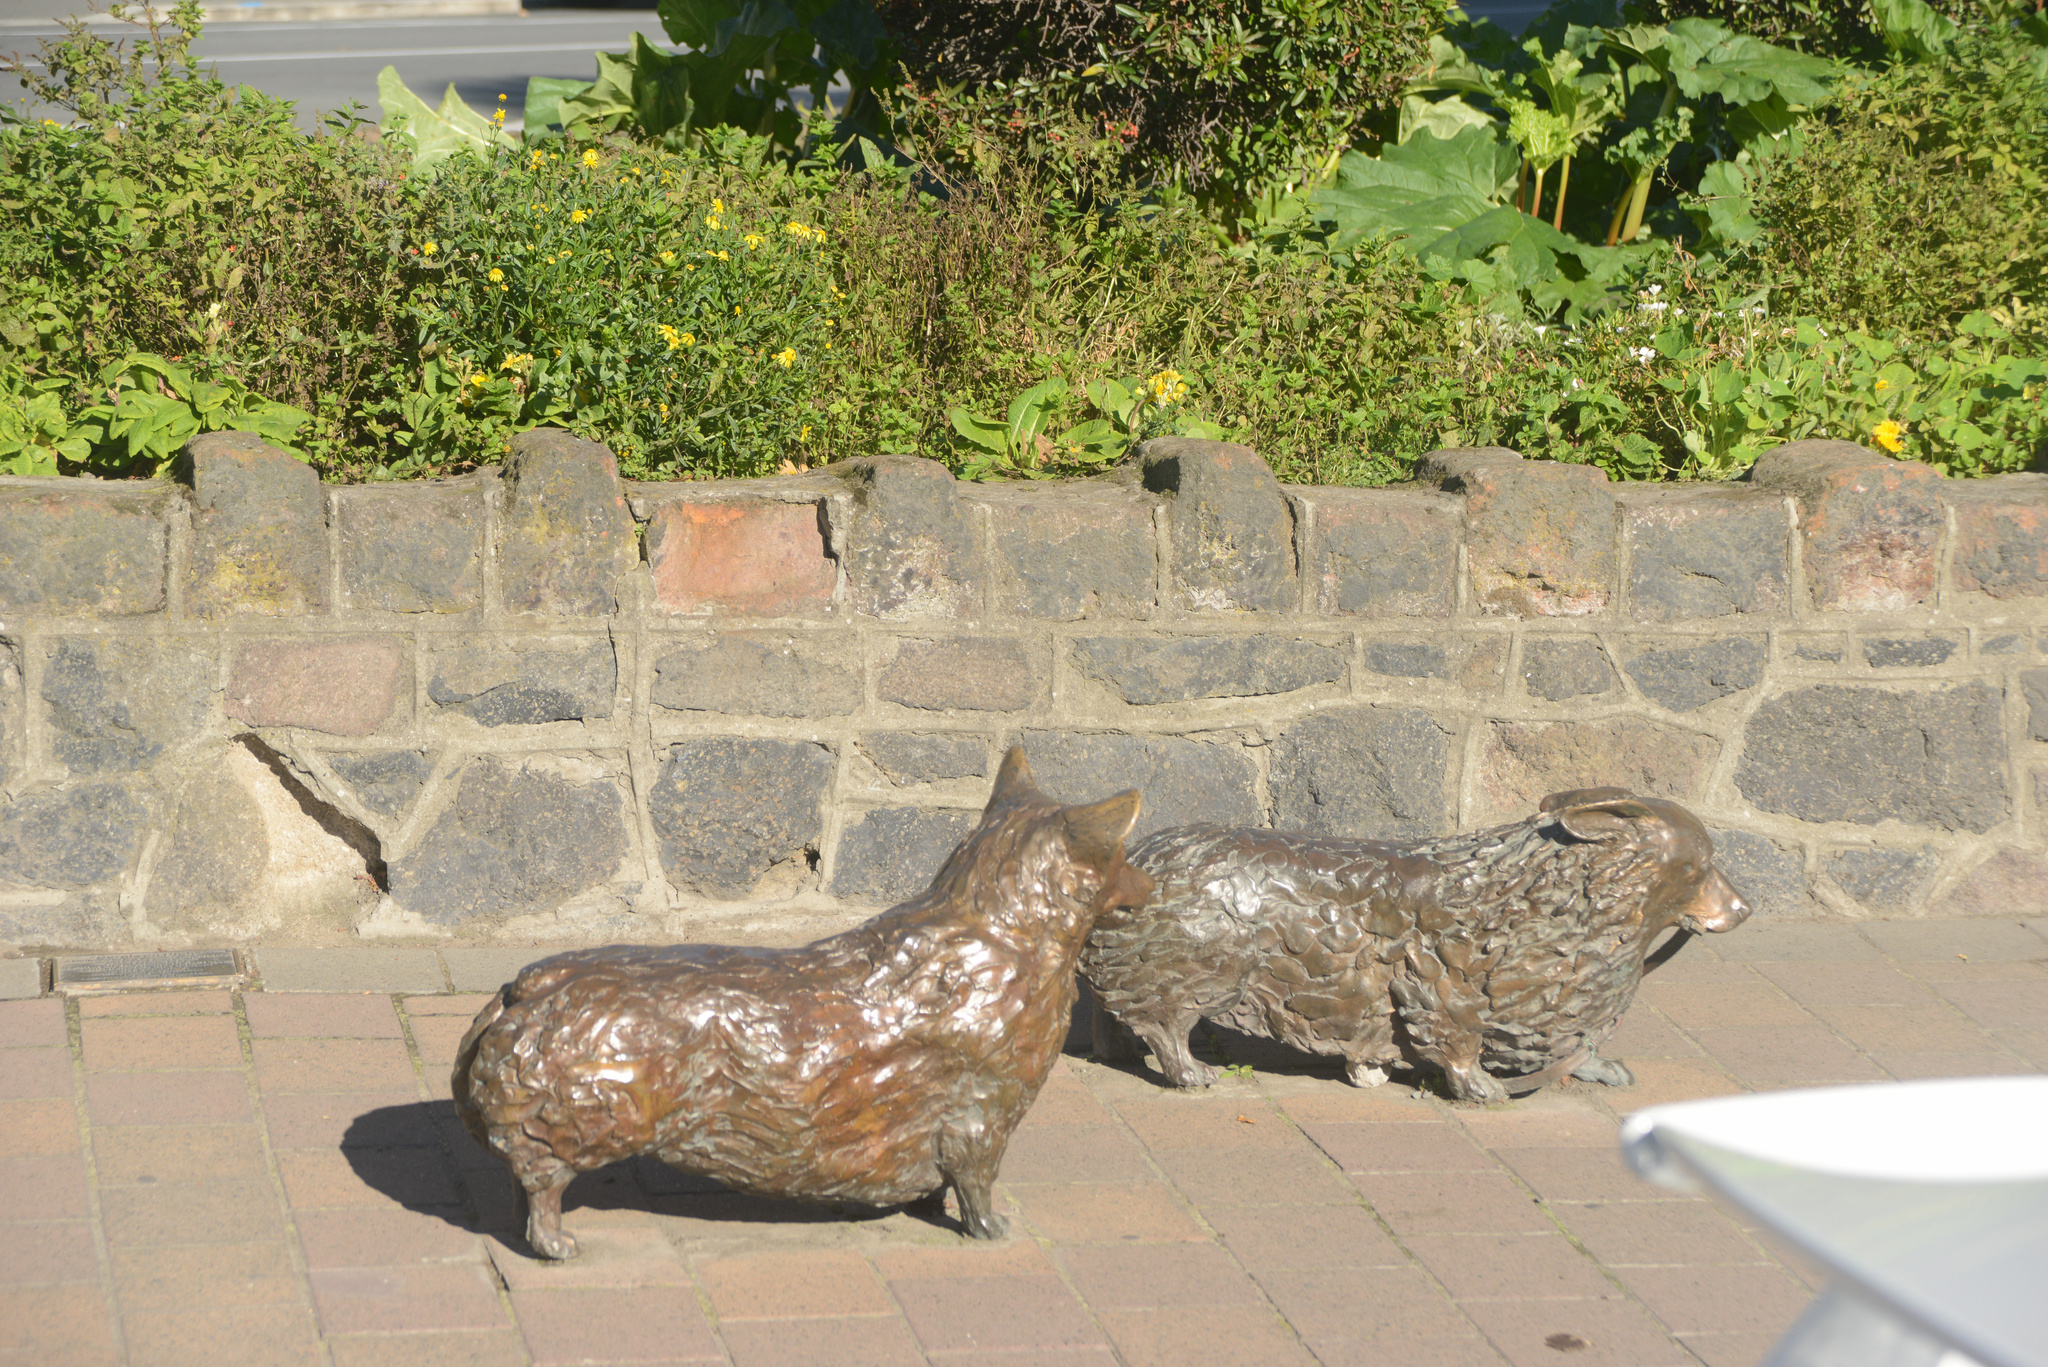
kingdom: Plantae
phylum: Tracheophyta
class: Magnoliopsida
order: Asterales
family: Asteraceae
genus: Senecio
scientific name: Senecio skirrhodon
